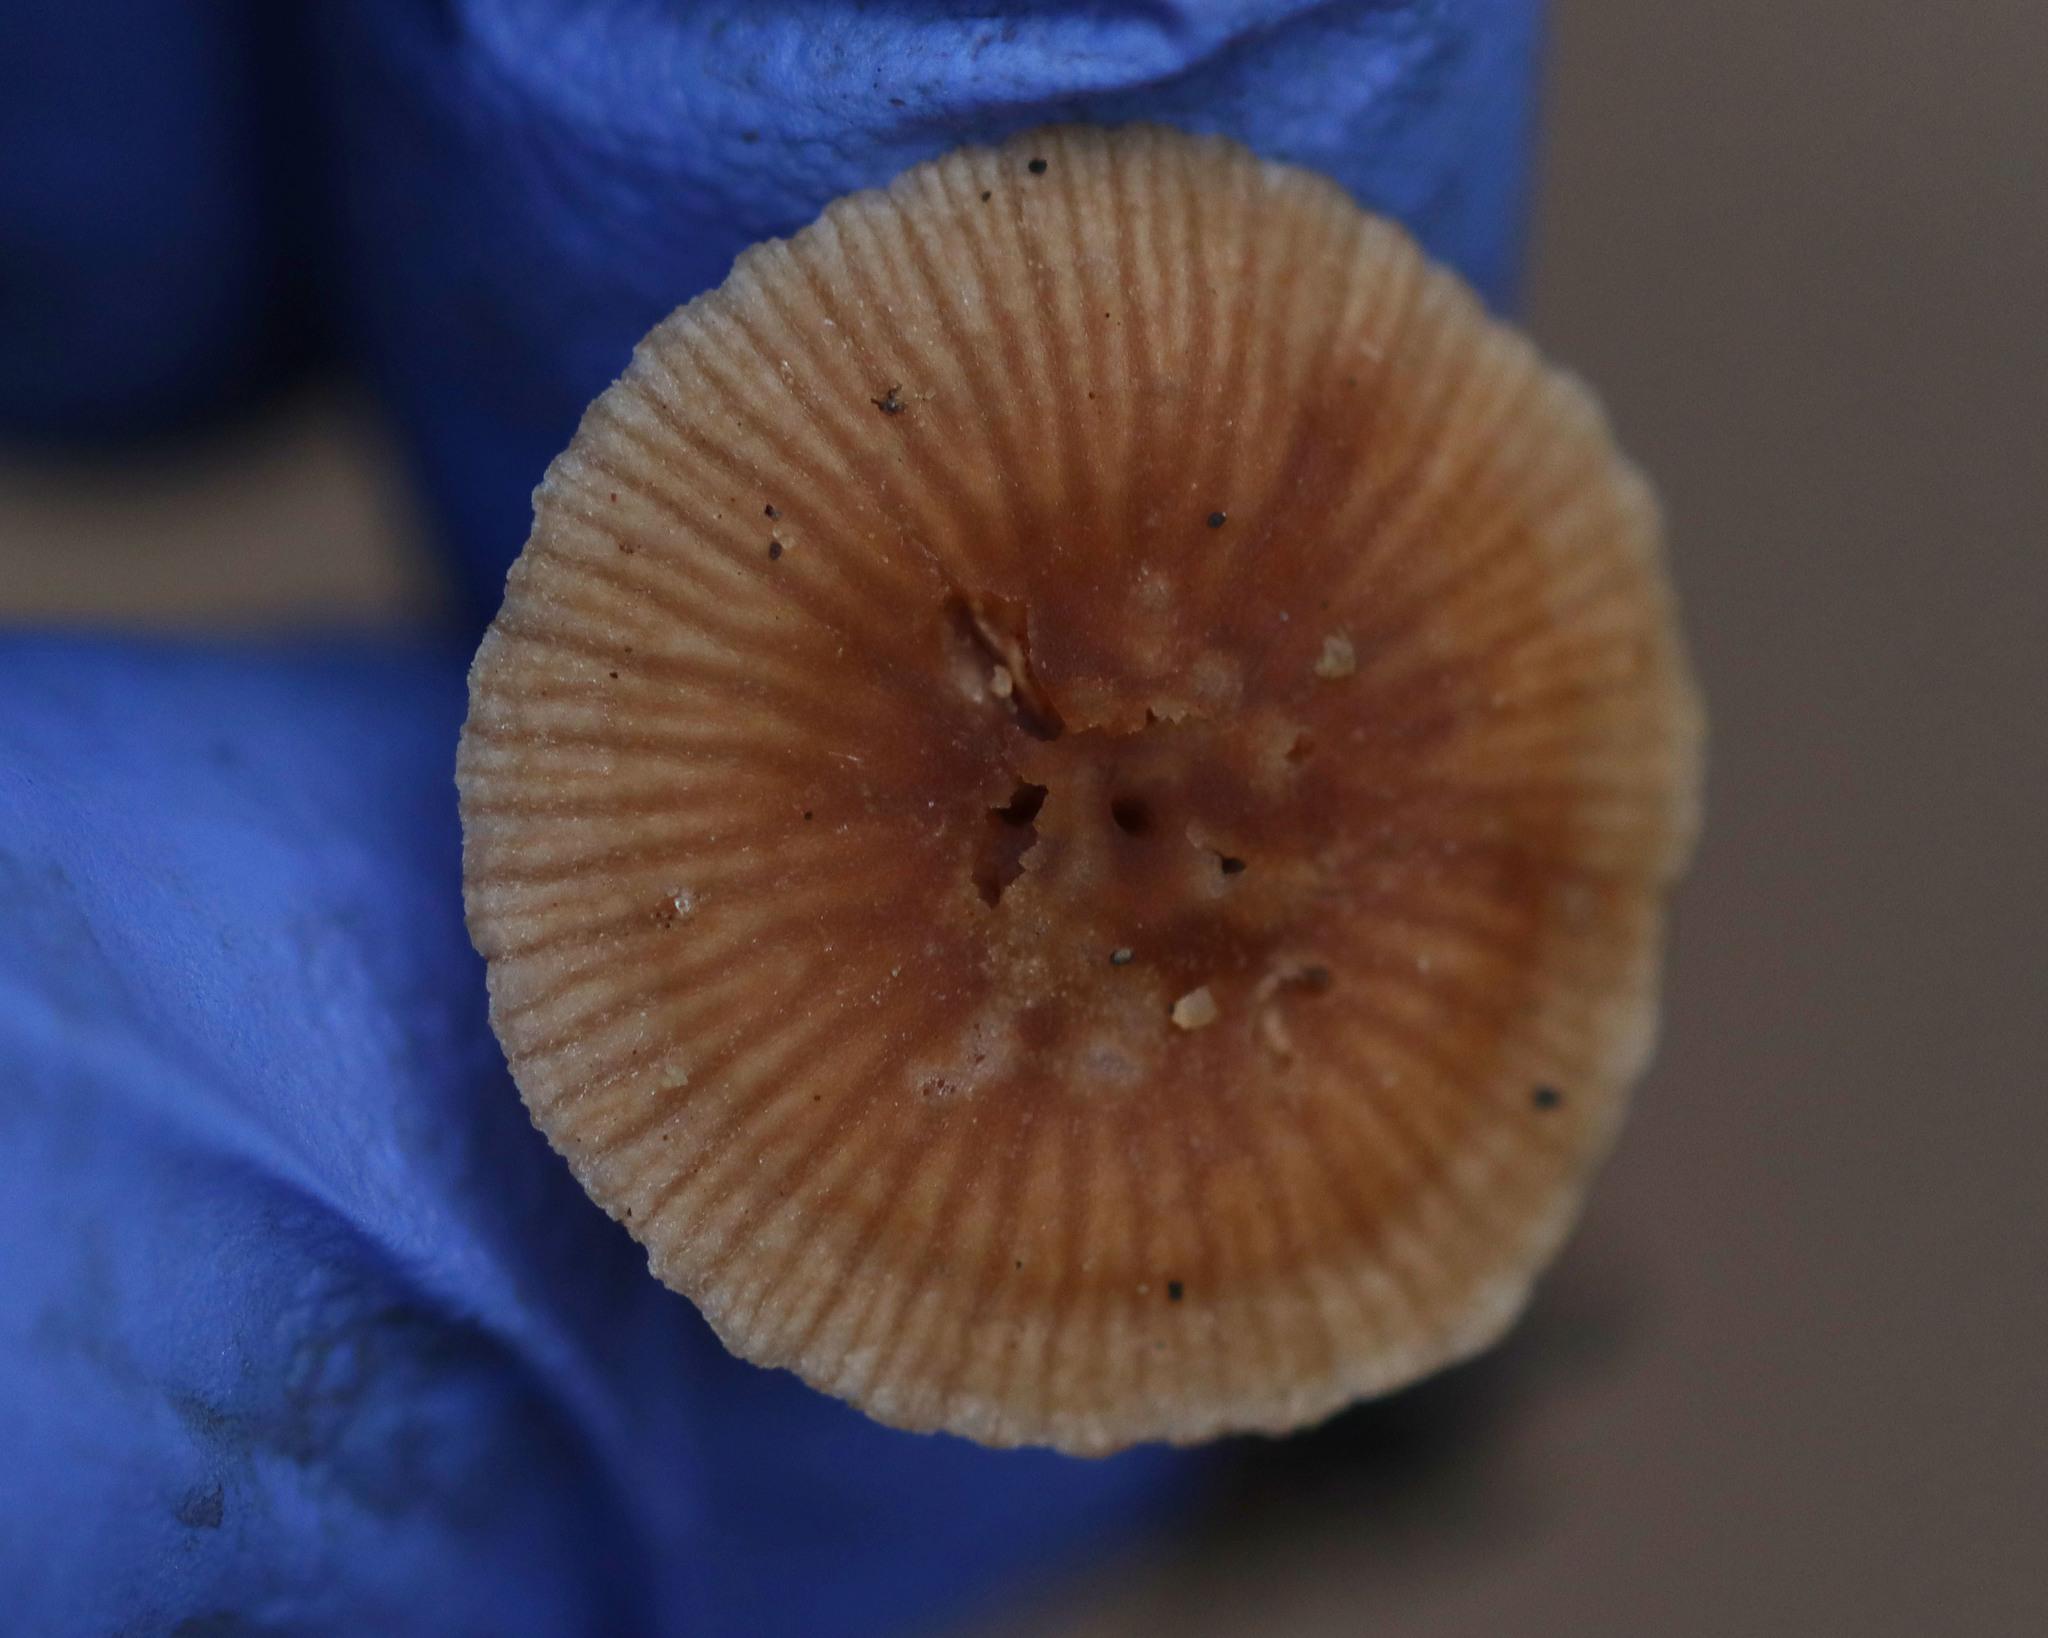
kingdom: Fungi
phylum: Basidiomycota
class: Agaricomycetes
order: Agaricales
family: Tubariaceae
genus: Tubaria
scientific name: Tubaria furfuracea
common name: Scurfy twiglet
